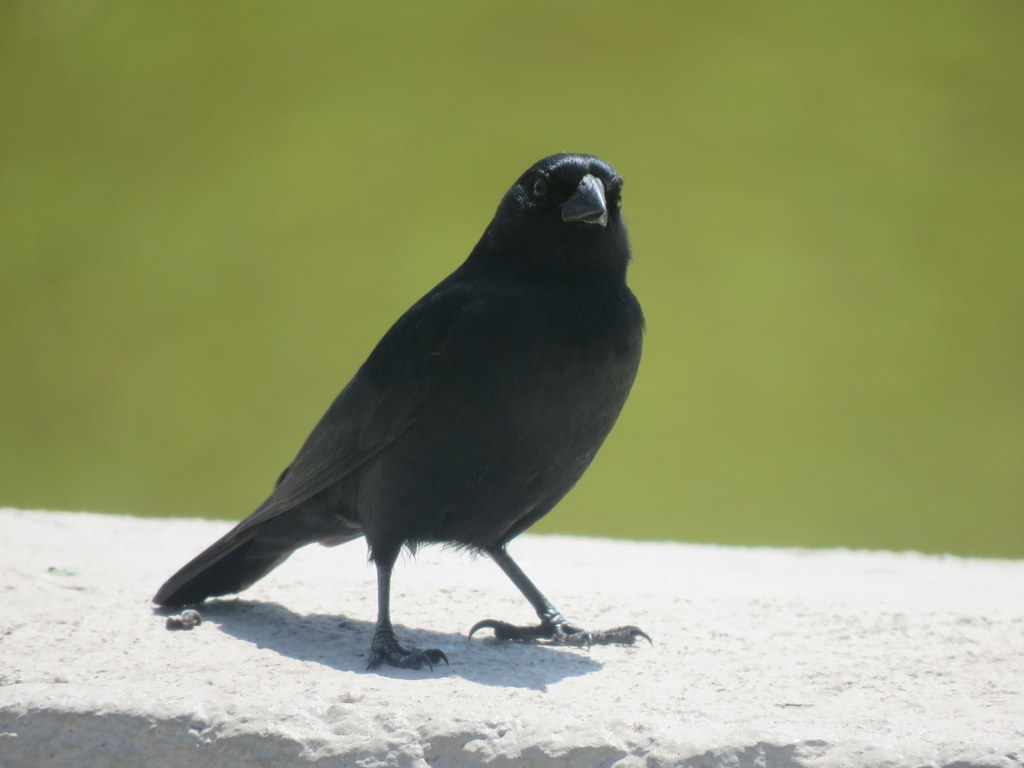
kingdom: Animalia
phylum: Chordata
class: Aves
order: Passeriformes
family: Icteridae
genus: Molothrus
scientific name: Molothrus rufoaxillaris
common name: Screaming cowbird
